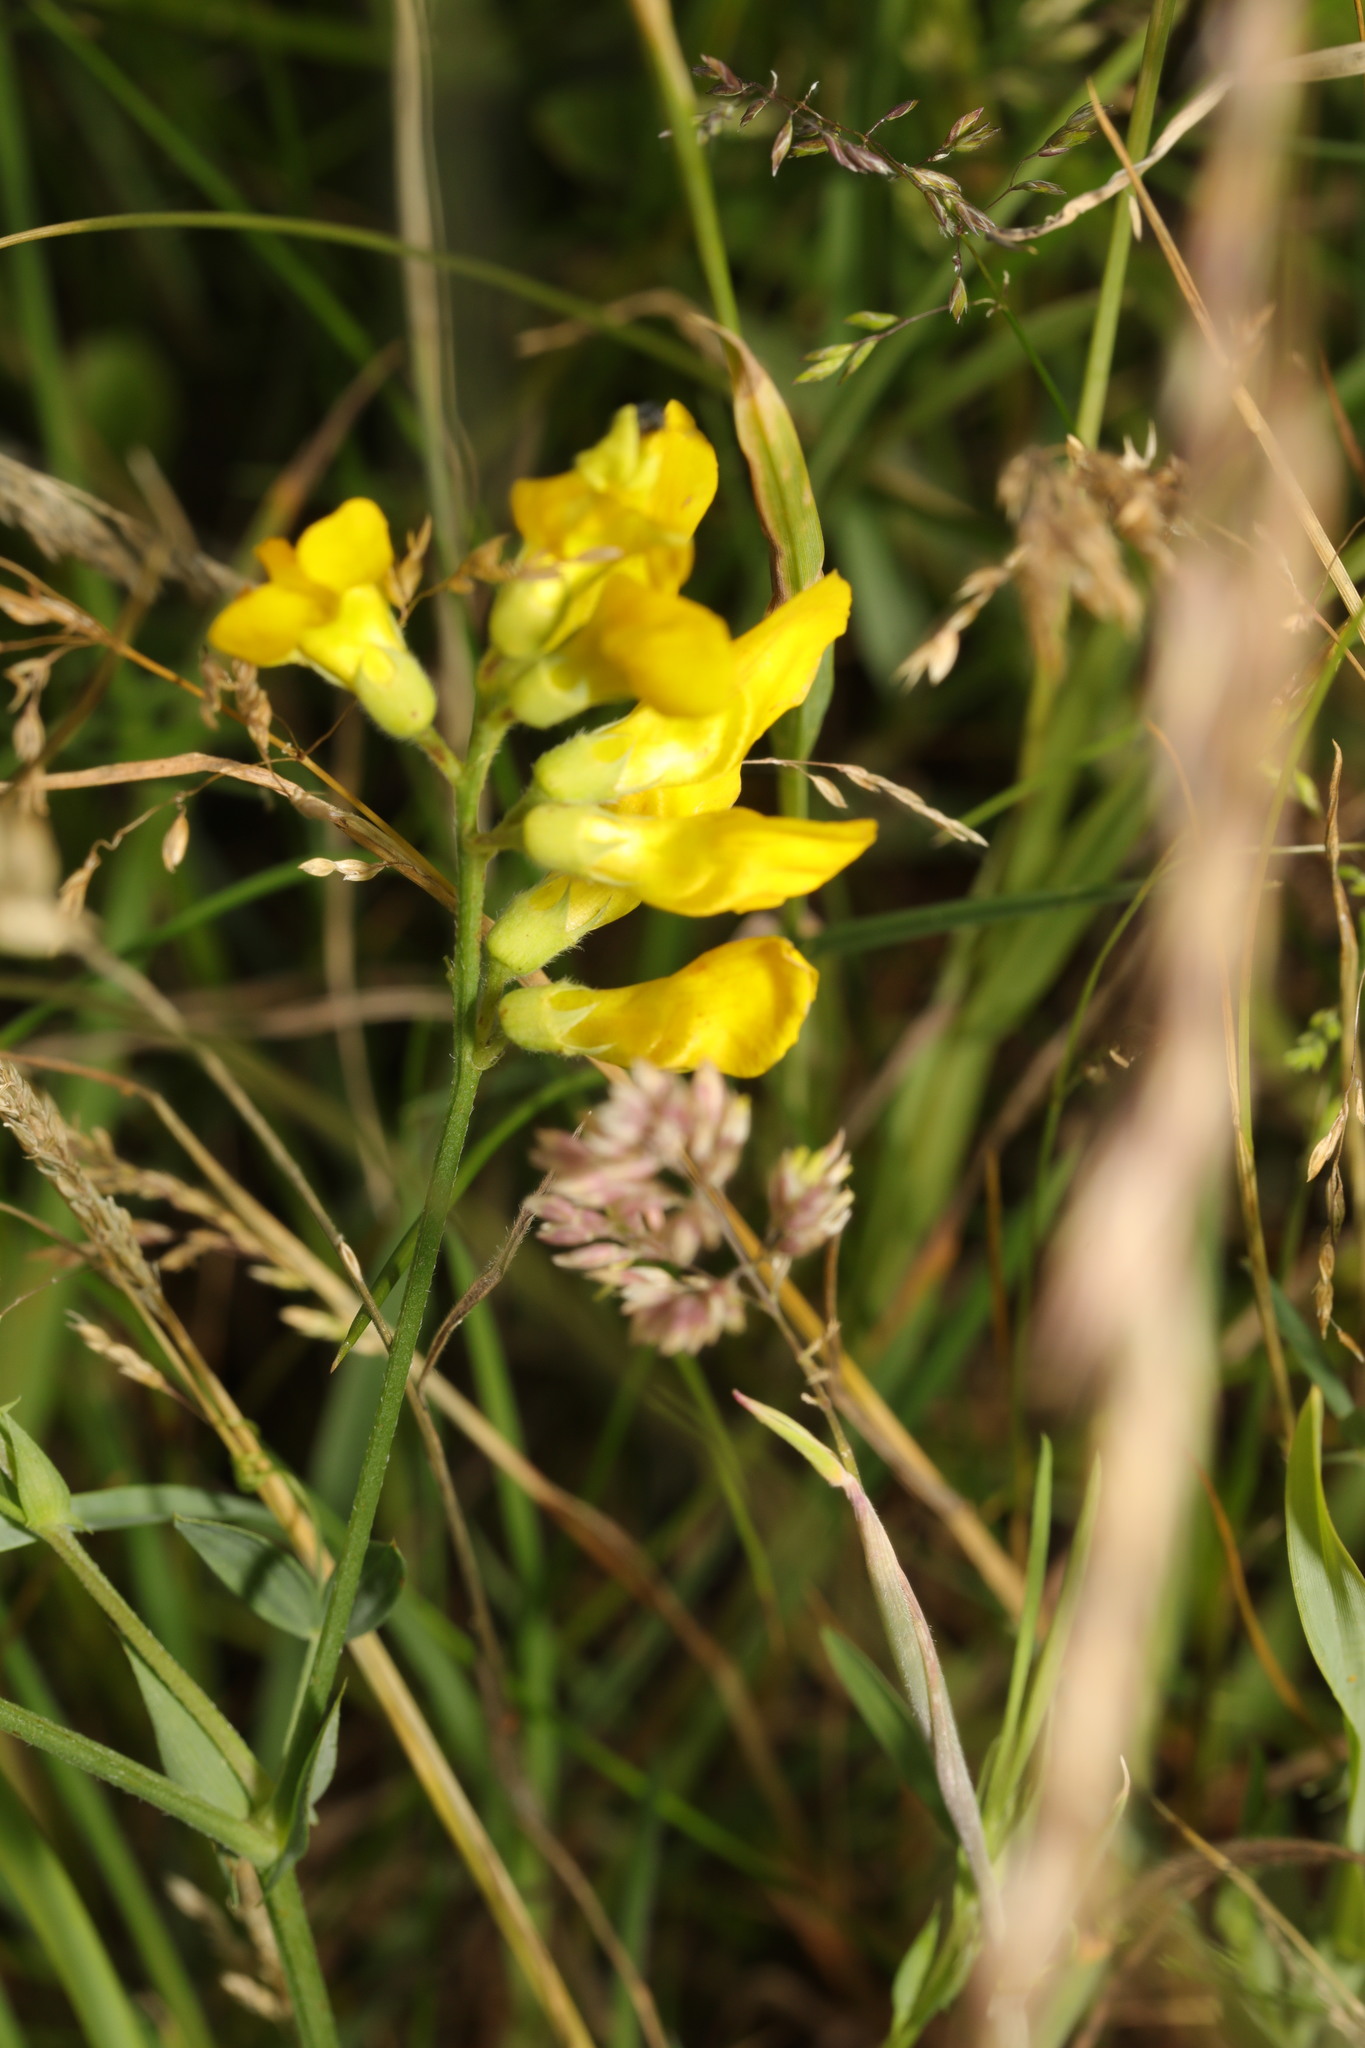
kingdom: Plantae
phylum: Tracheophyta
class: Magnoliopsida
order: Fabales
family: Fabaceae
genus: Lathyrus
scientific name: Lathyrus pratensis
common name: Meadow vetchling
